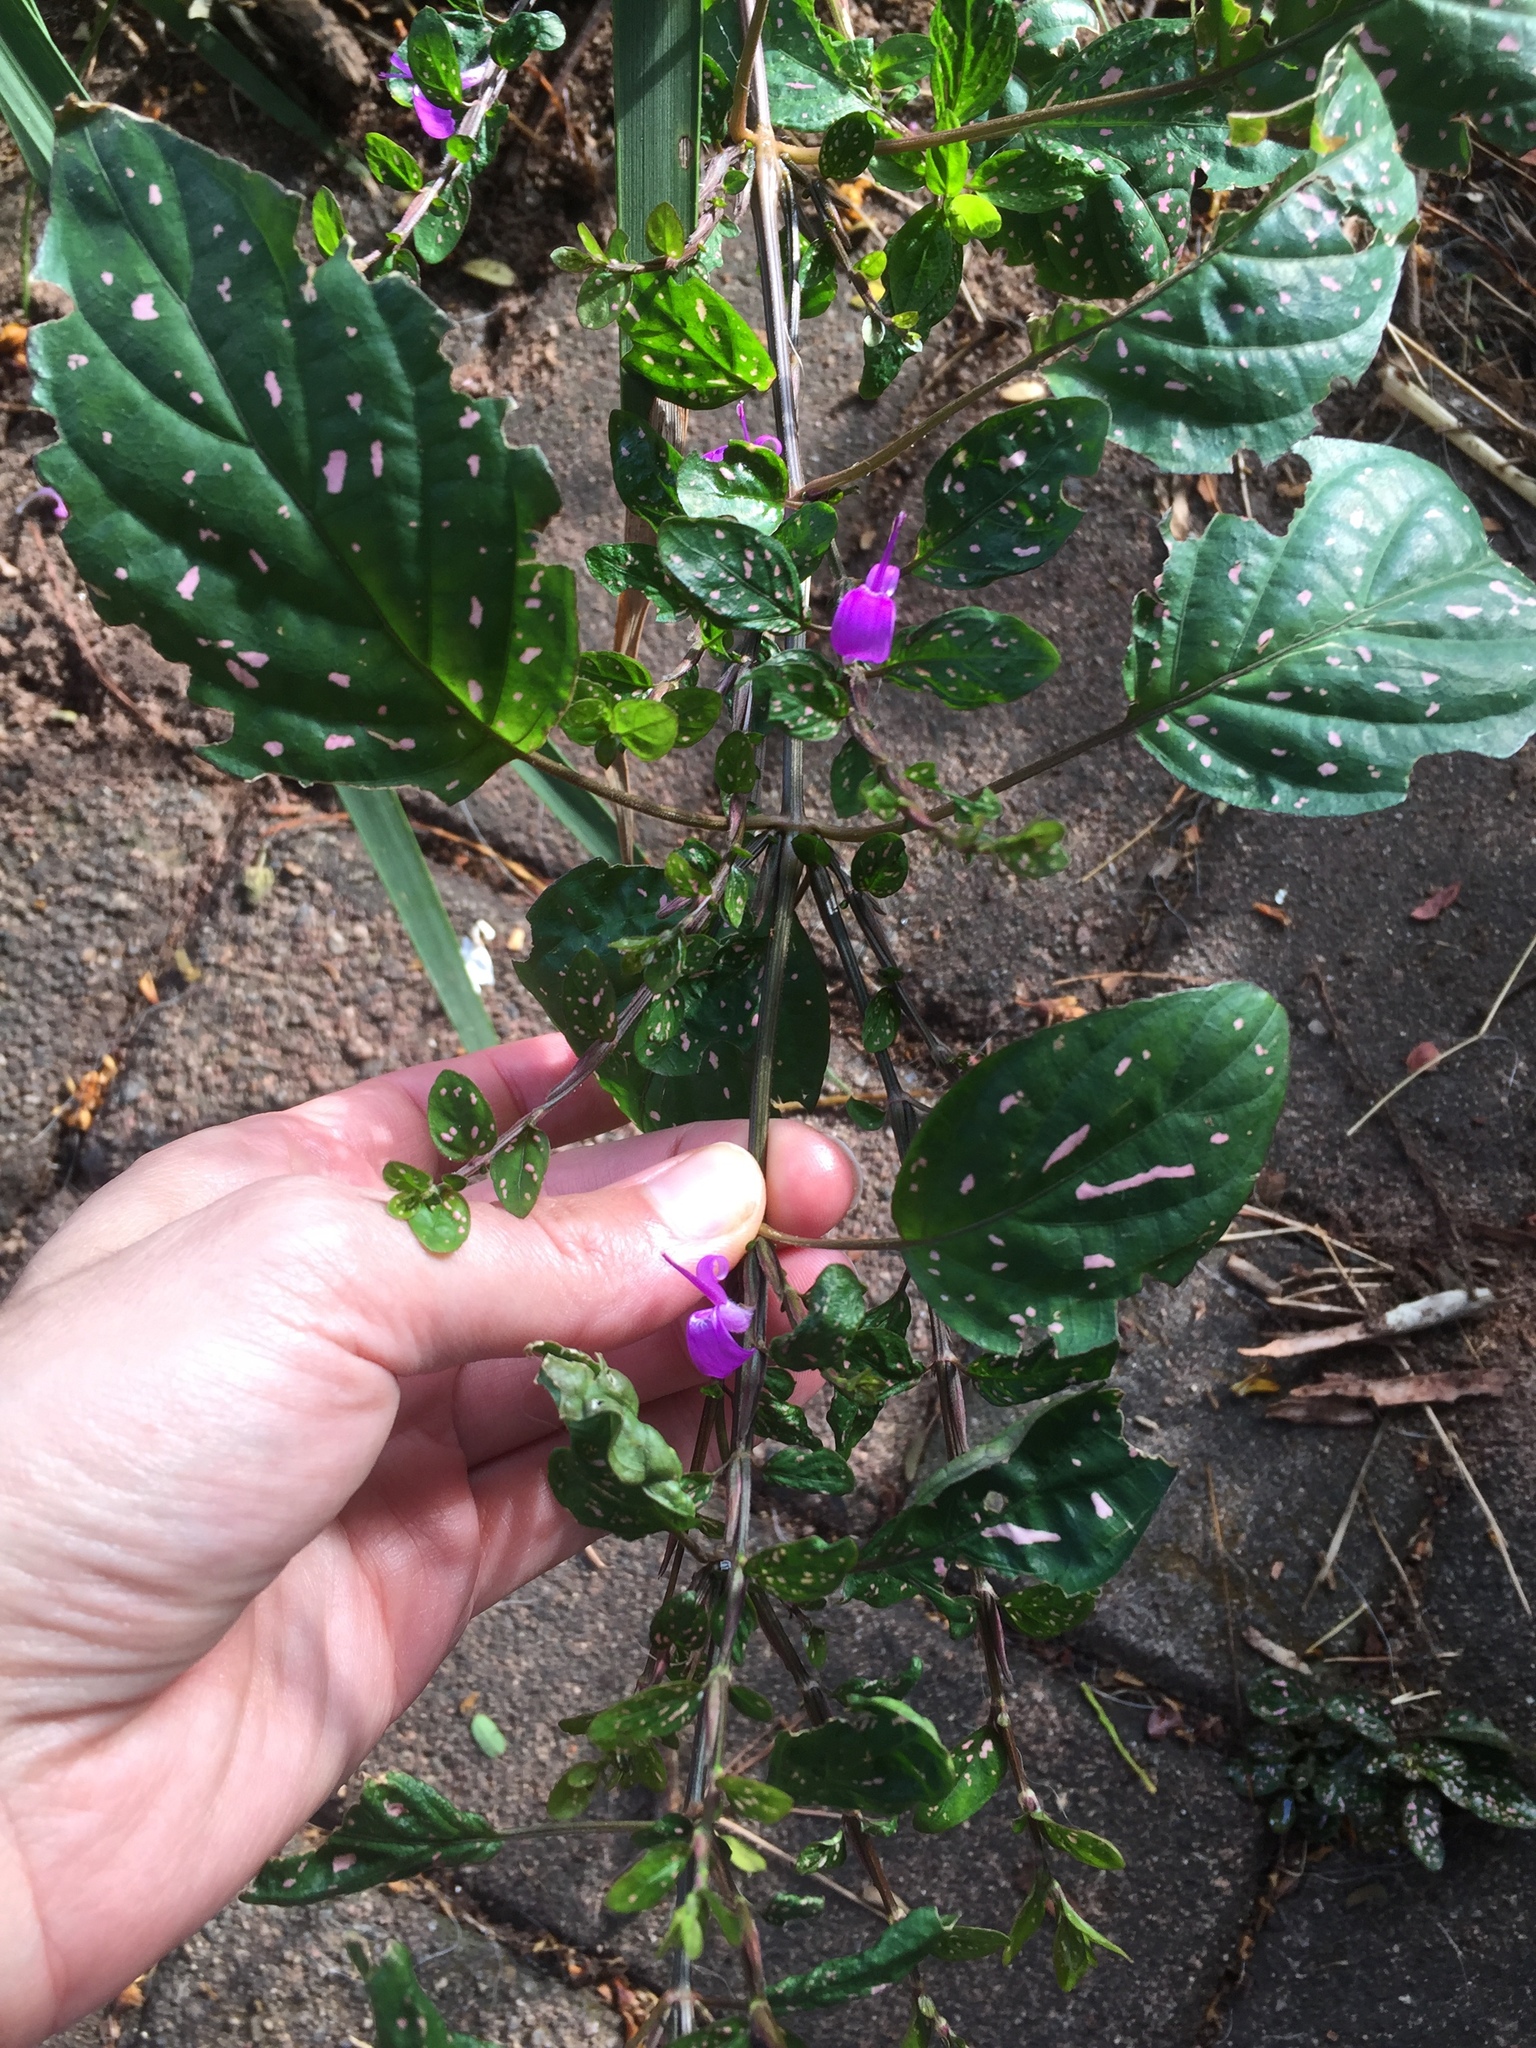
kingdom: Plantae
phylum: Tracheophyta
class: Magnoliopsida
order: Lamiales
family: Acanthaceae
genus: Hypoestes
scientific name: Hypoestes phyllostachya
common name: Polkadot-plant
